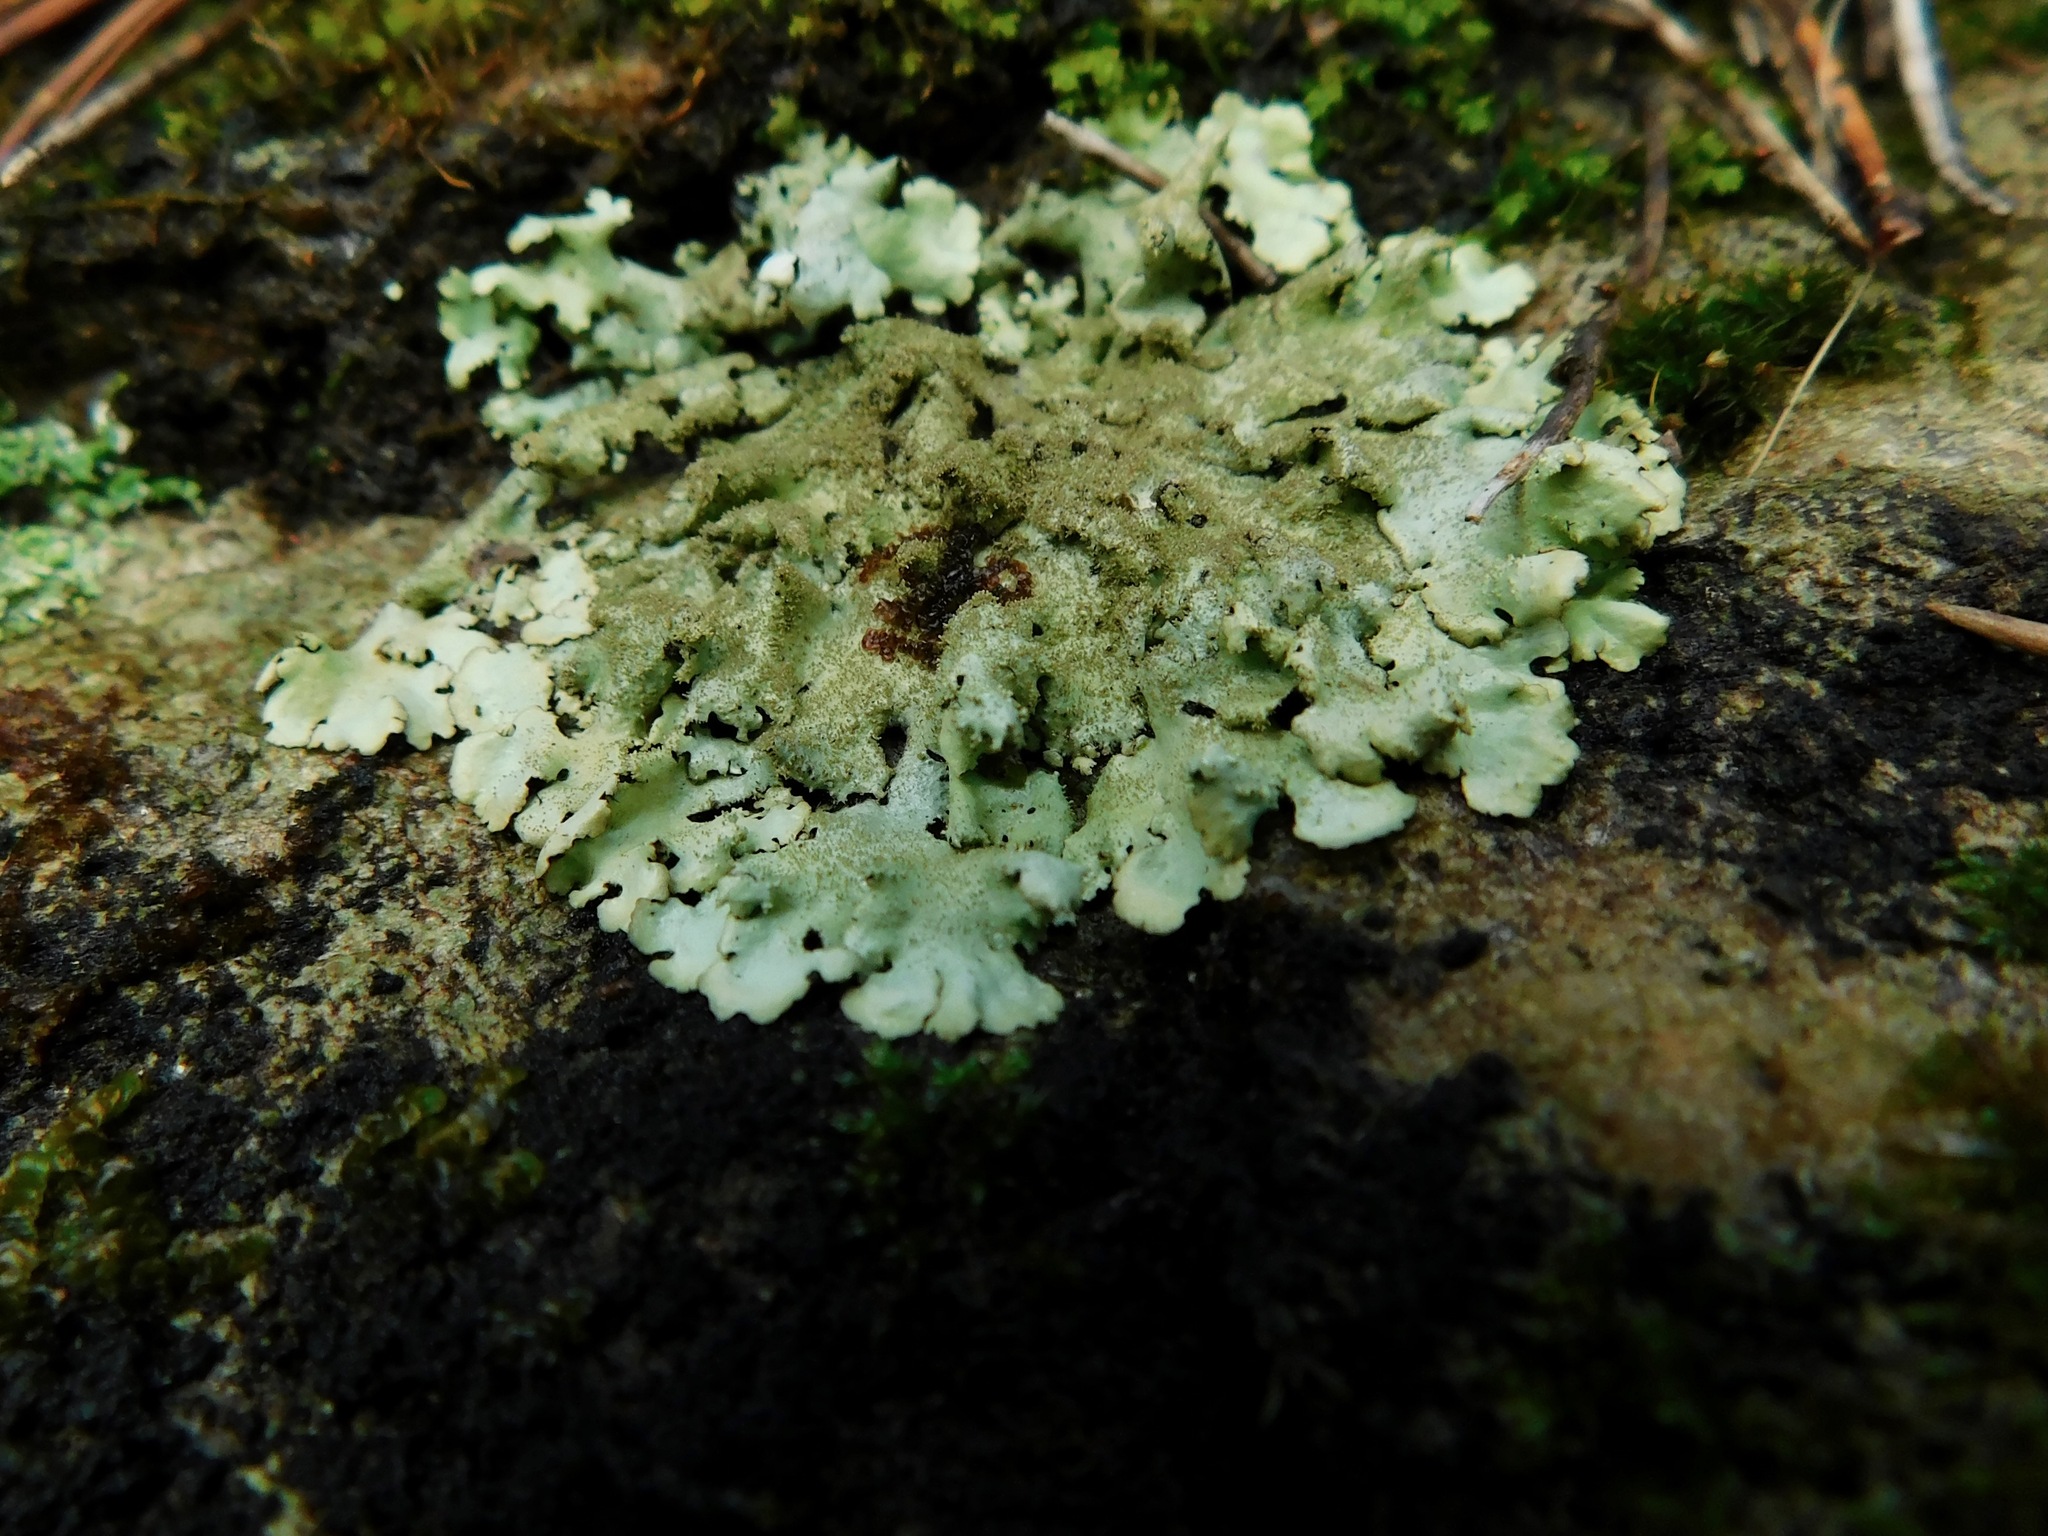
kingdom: Fungi
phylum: Ascomycota
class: Lecanoromycetes
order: Lecanorales
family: Parmeliaceae
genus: Myelochroa
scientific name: Myelochroa obsessa
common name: Rock axil-bristle lichen
